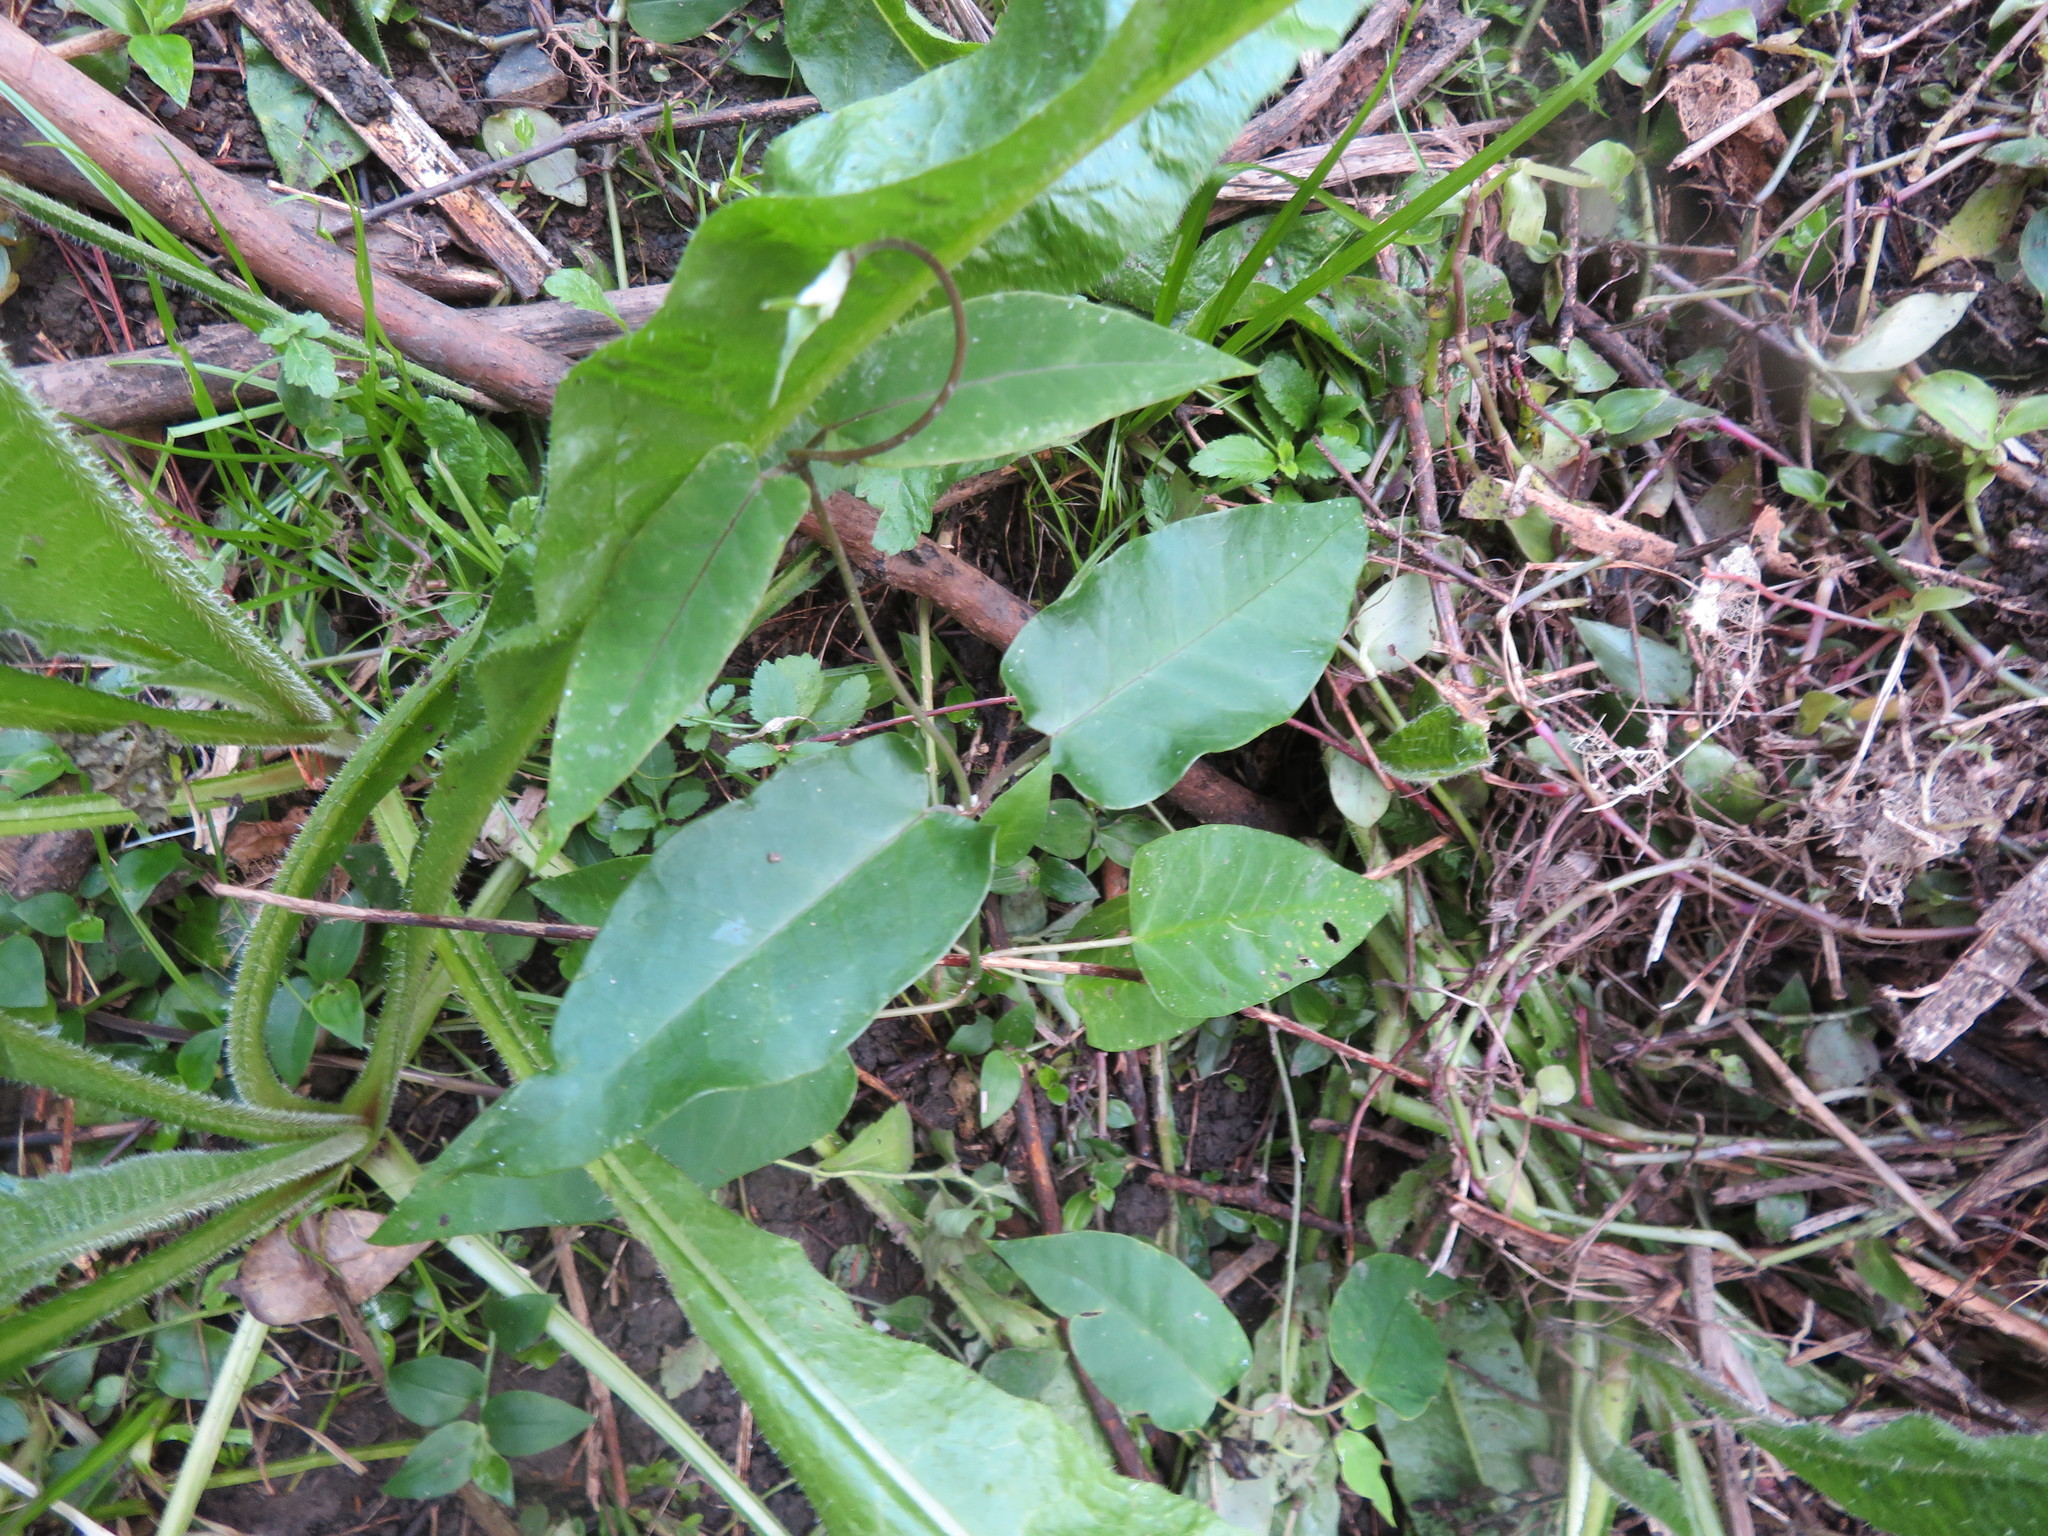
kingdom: Plantae
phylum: Tracheophyta
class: Magnoliopsida
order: Gentianales
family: Apocynaceae
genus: Araujia
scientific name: Araujia sericifera
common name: White bladderflower
